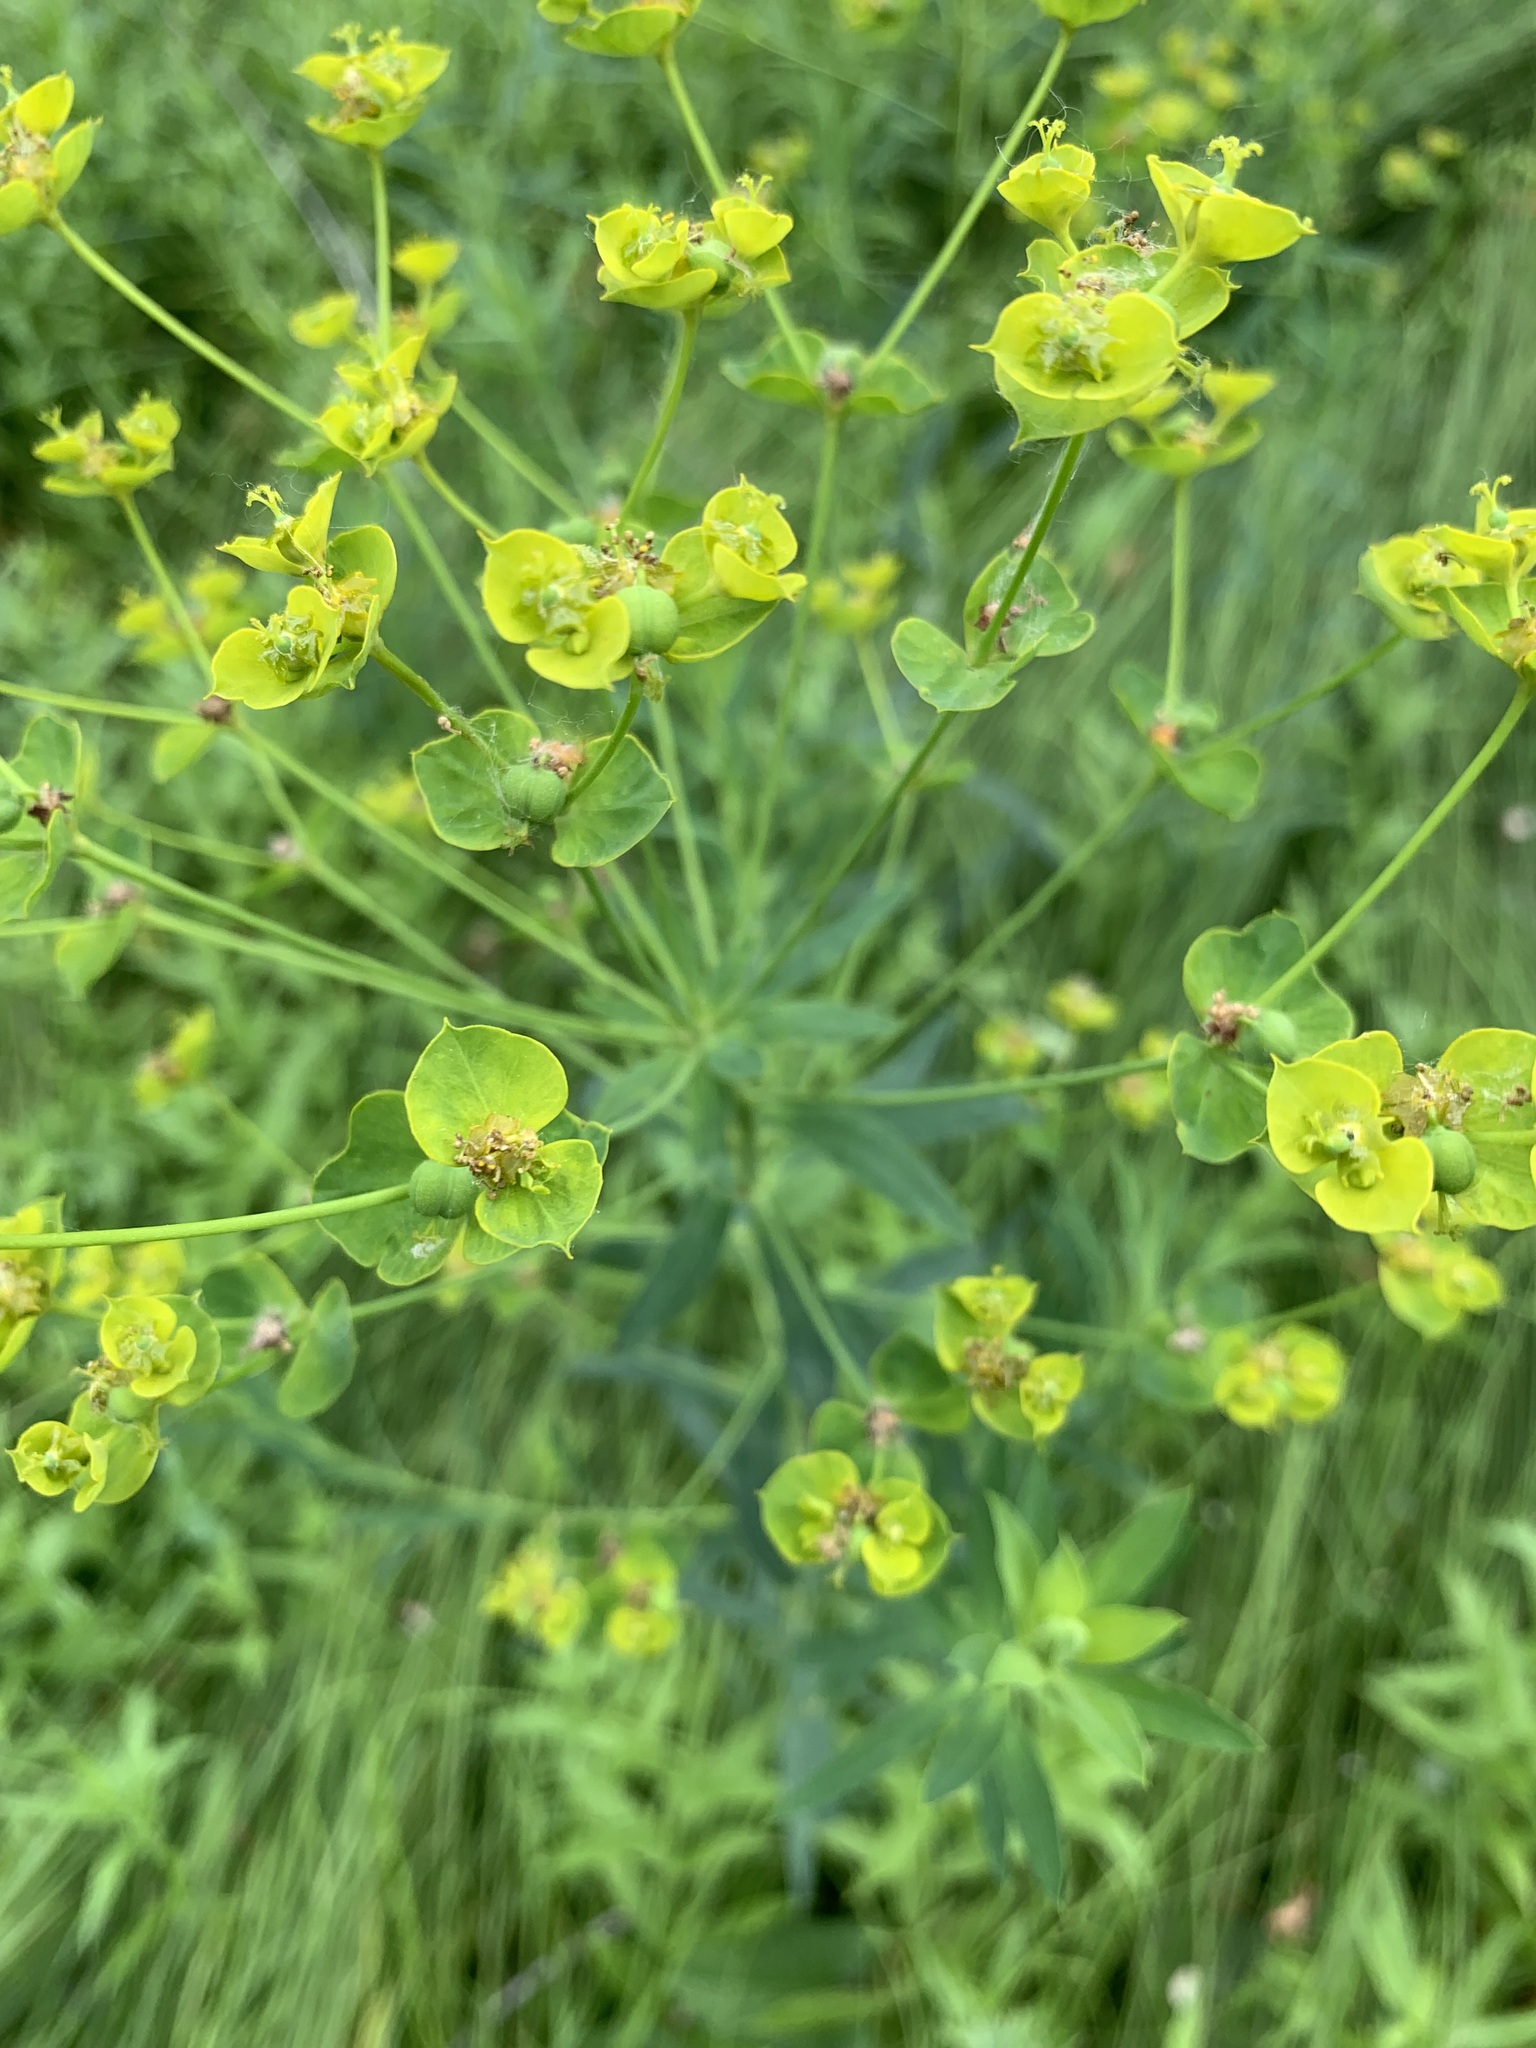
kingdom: Plantae
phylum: Tracheophyta
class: Magnoliopsida
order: Malpighiales
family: Euphorbiaceae
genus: Euphorbia
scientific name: Euphorbia virgata
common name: Leafy spurge
